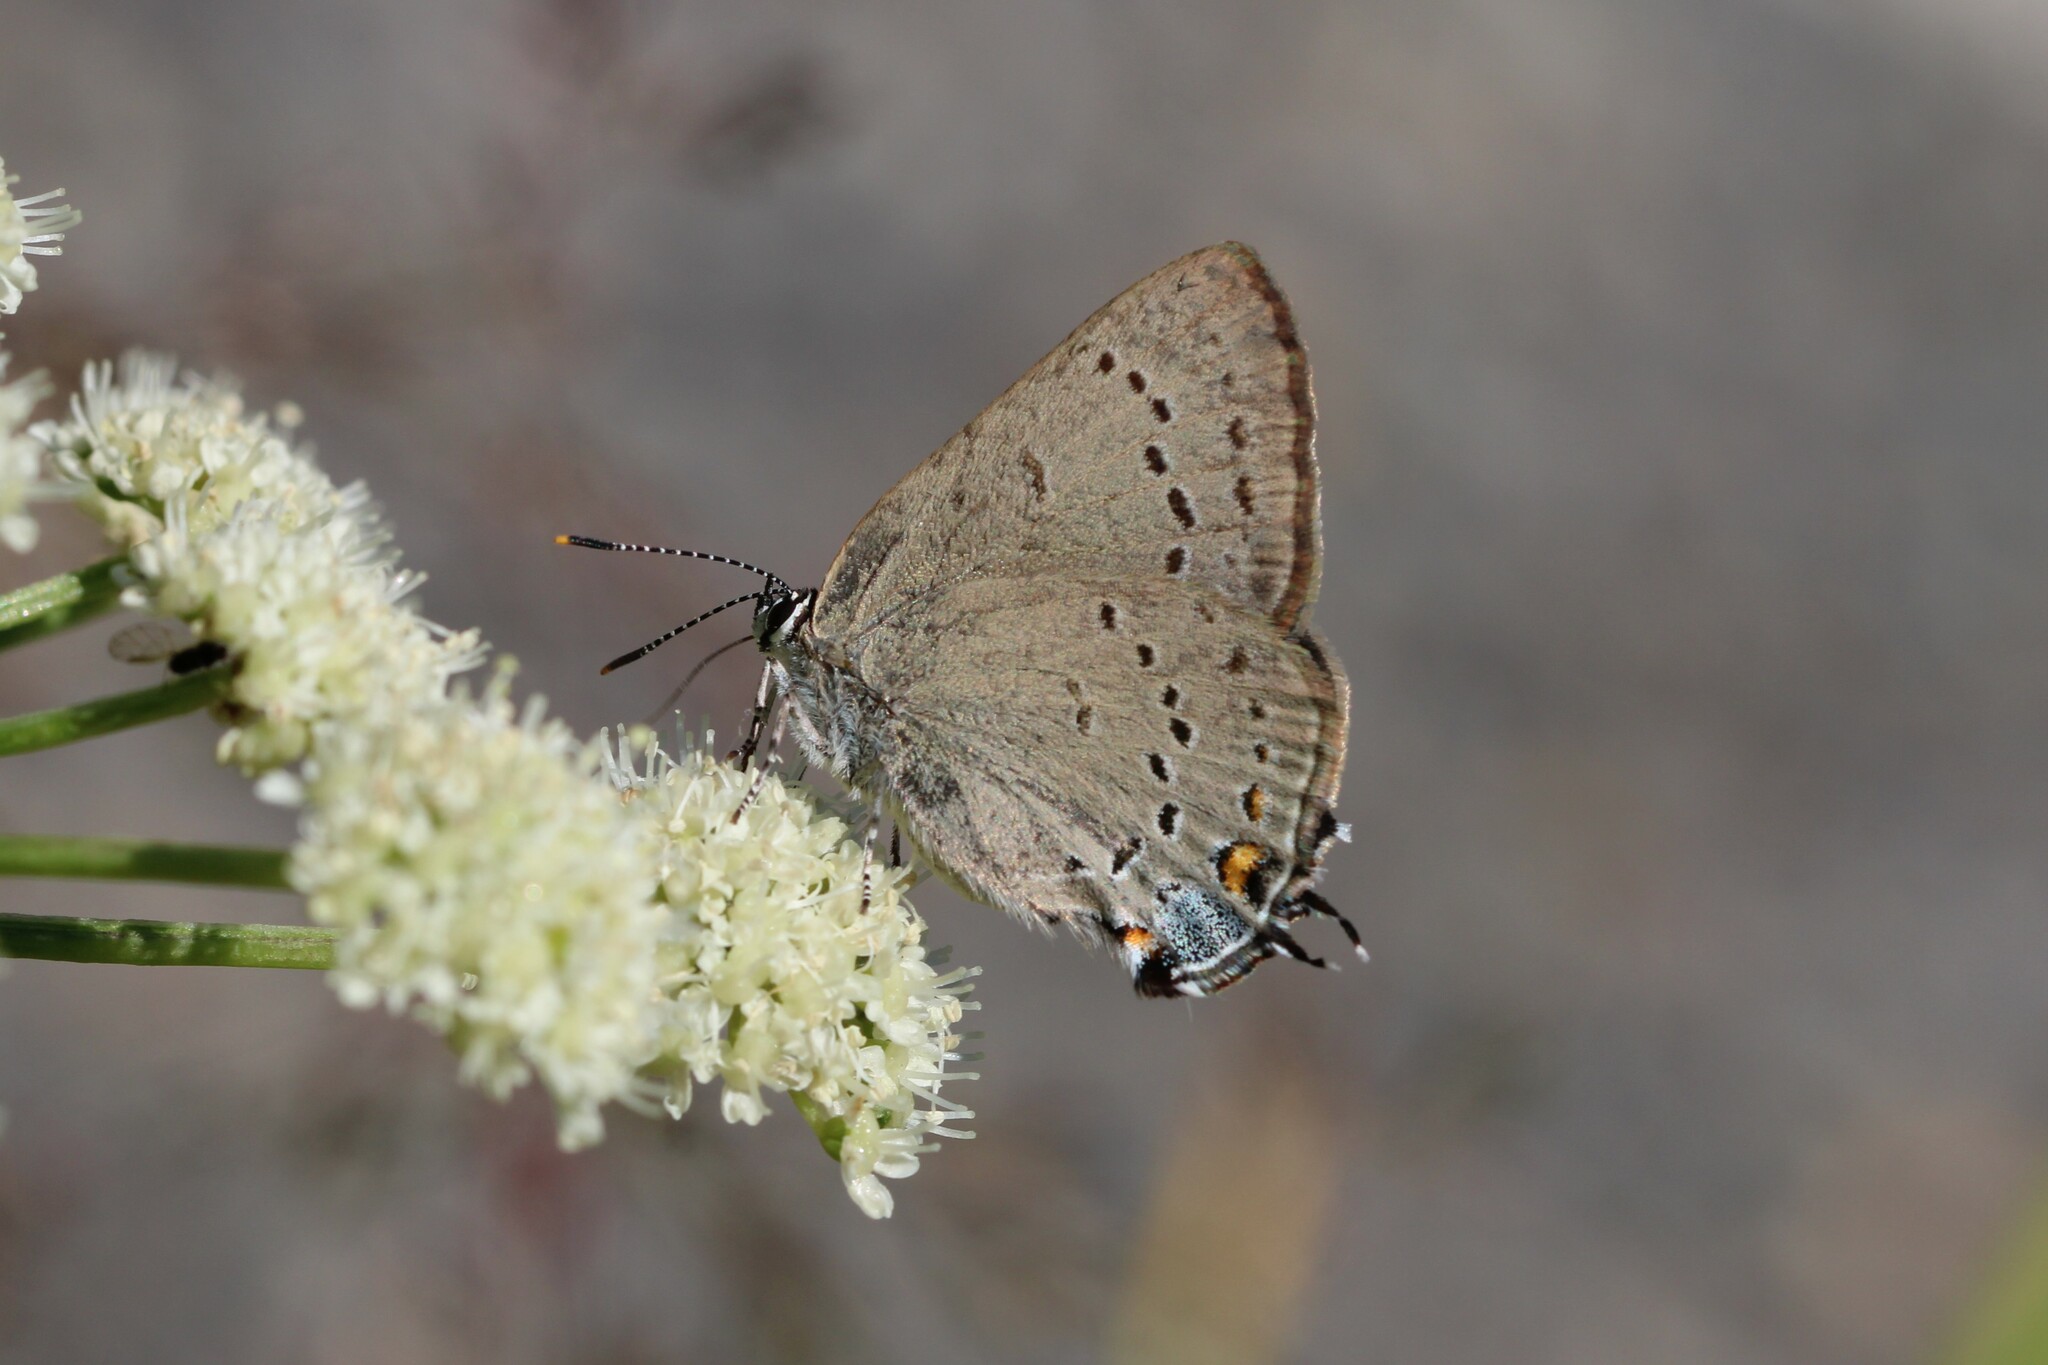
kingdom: Animalia
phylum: Arthropoda
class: Insecta
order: Lepidoptera
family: Lycaenidae
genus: Strymon
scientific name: Strymon sylvinus
